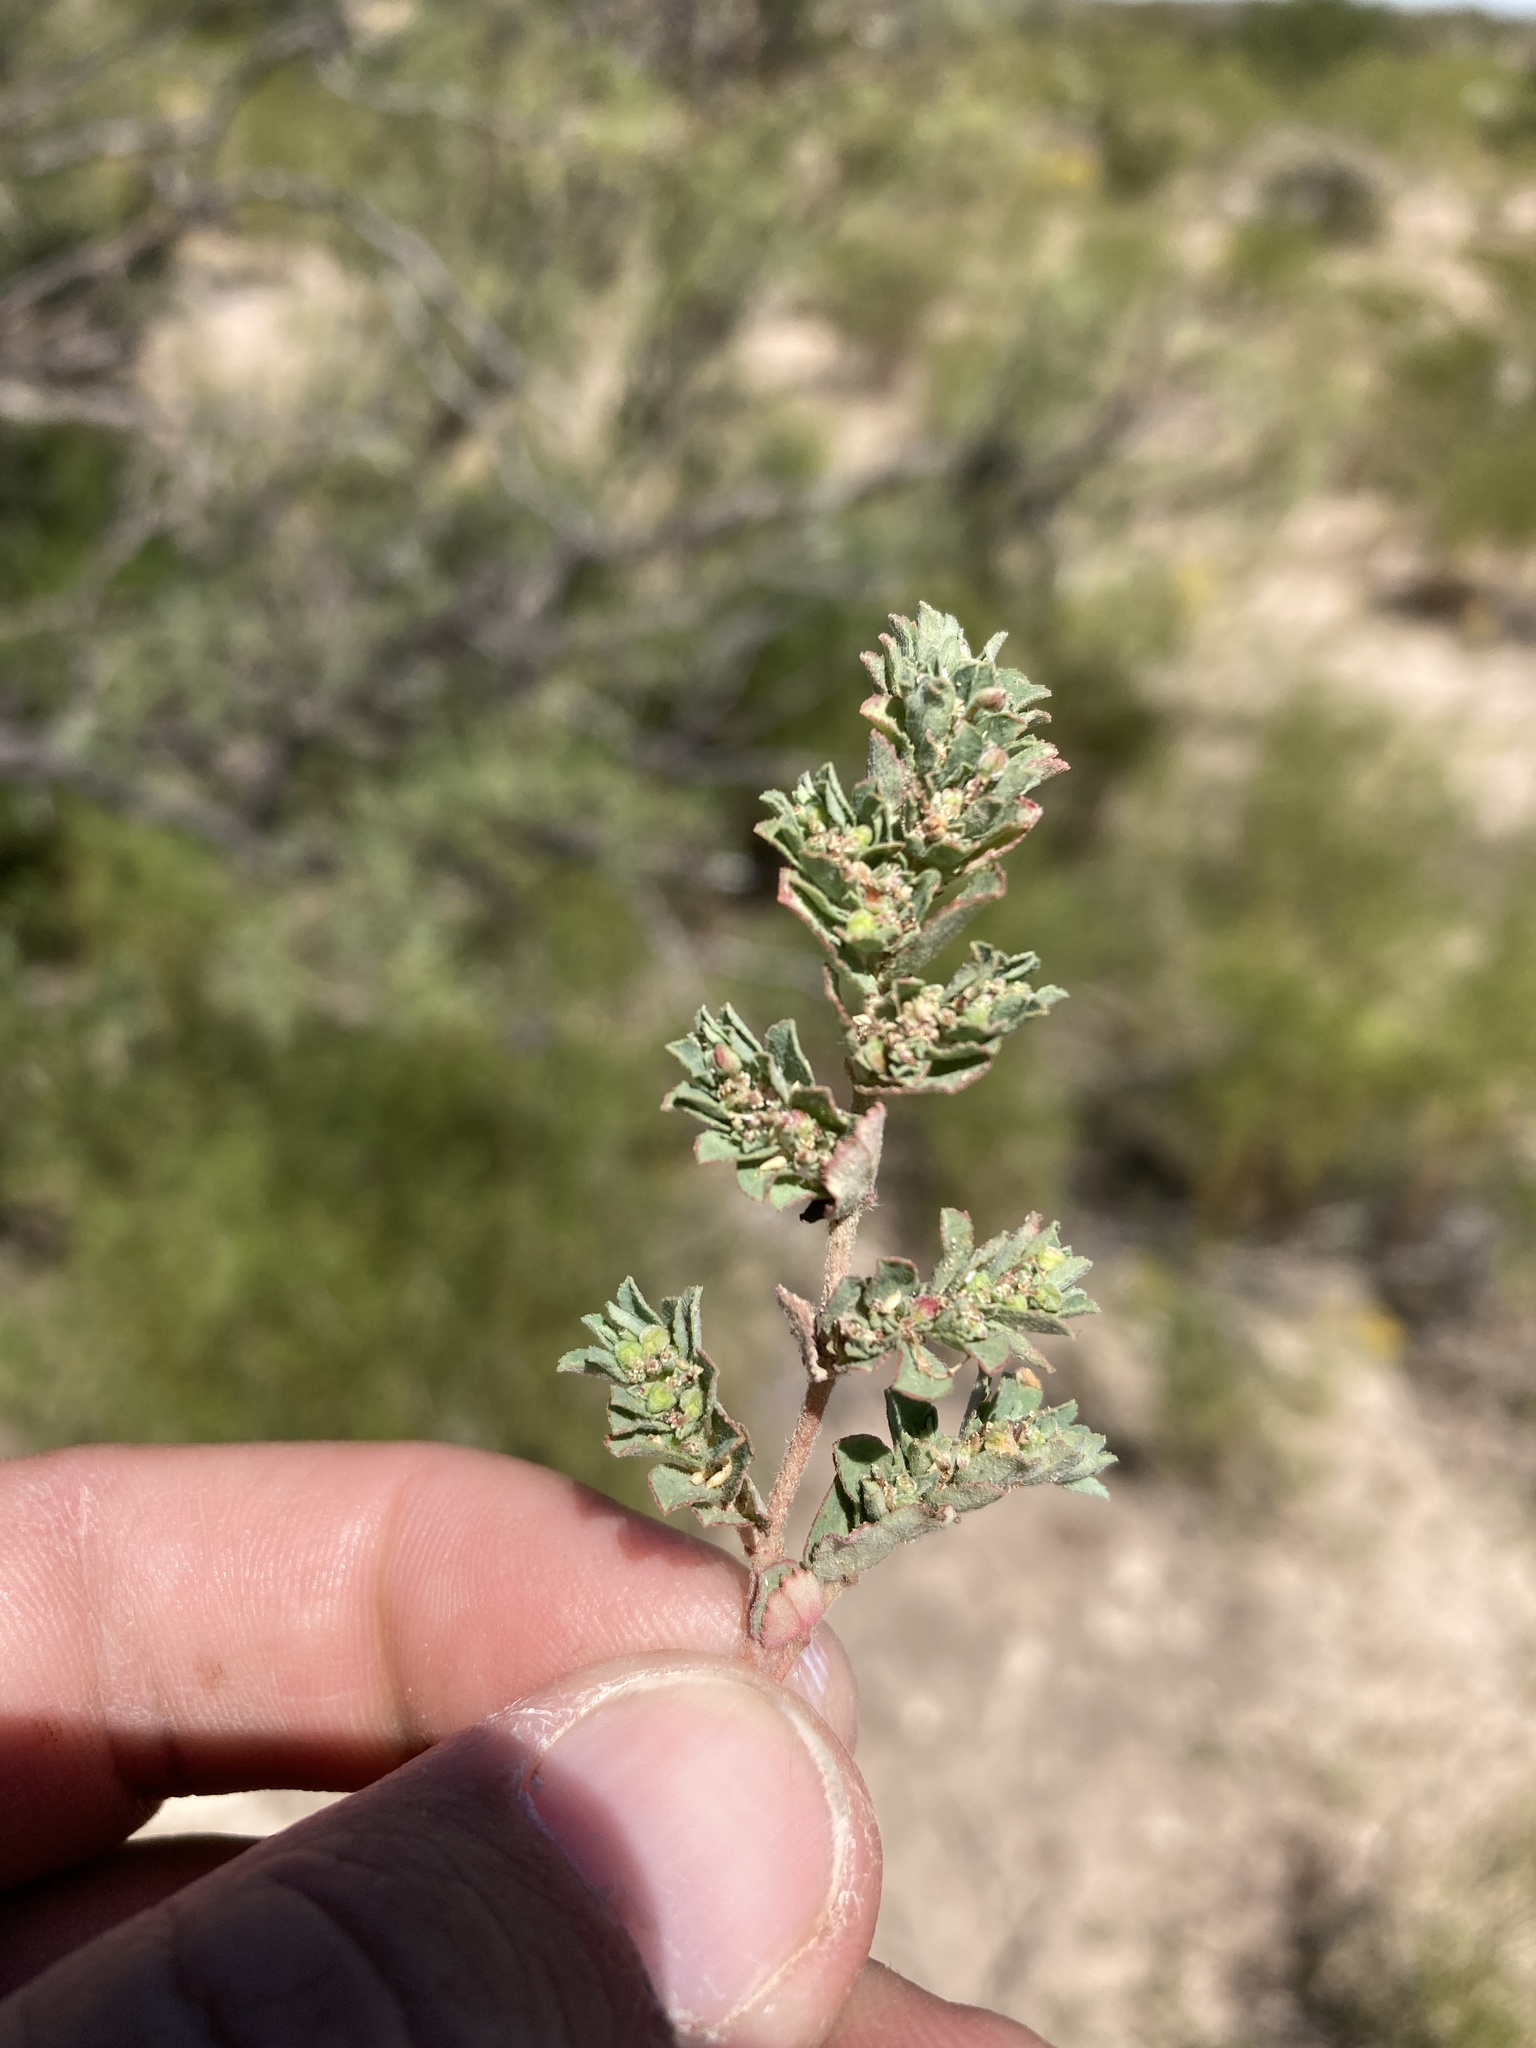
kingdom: Plantae
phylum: Tracheophyta
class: Magnoliopsida
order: Malpighiales
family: Euphorbiaceae
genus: Euphorbia
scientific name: Euphorbia stictospora
